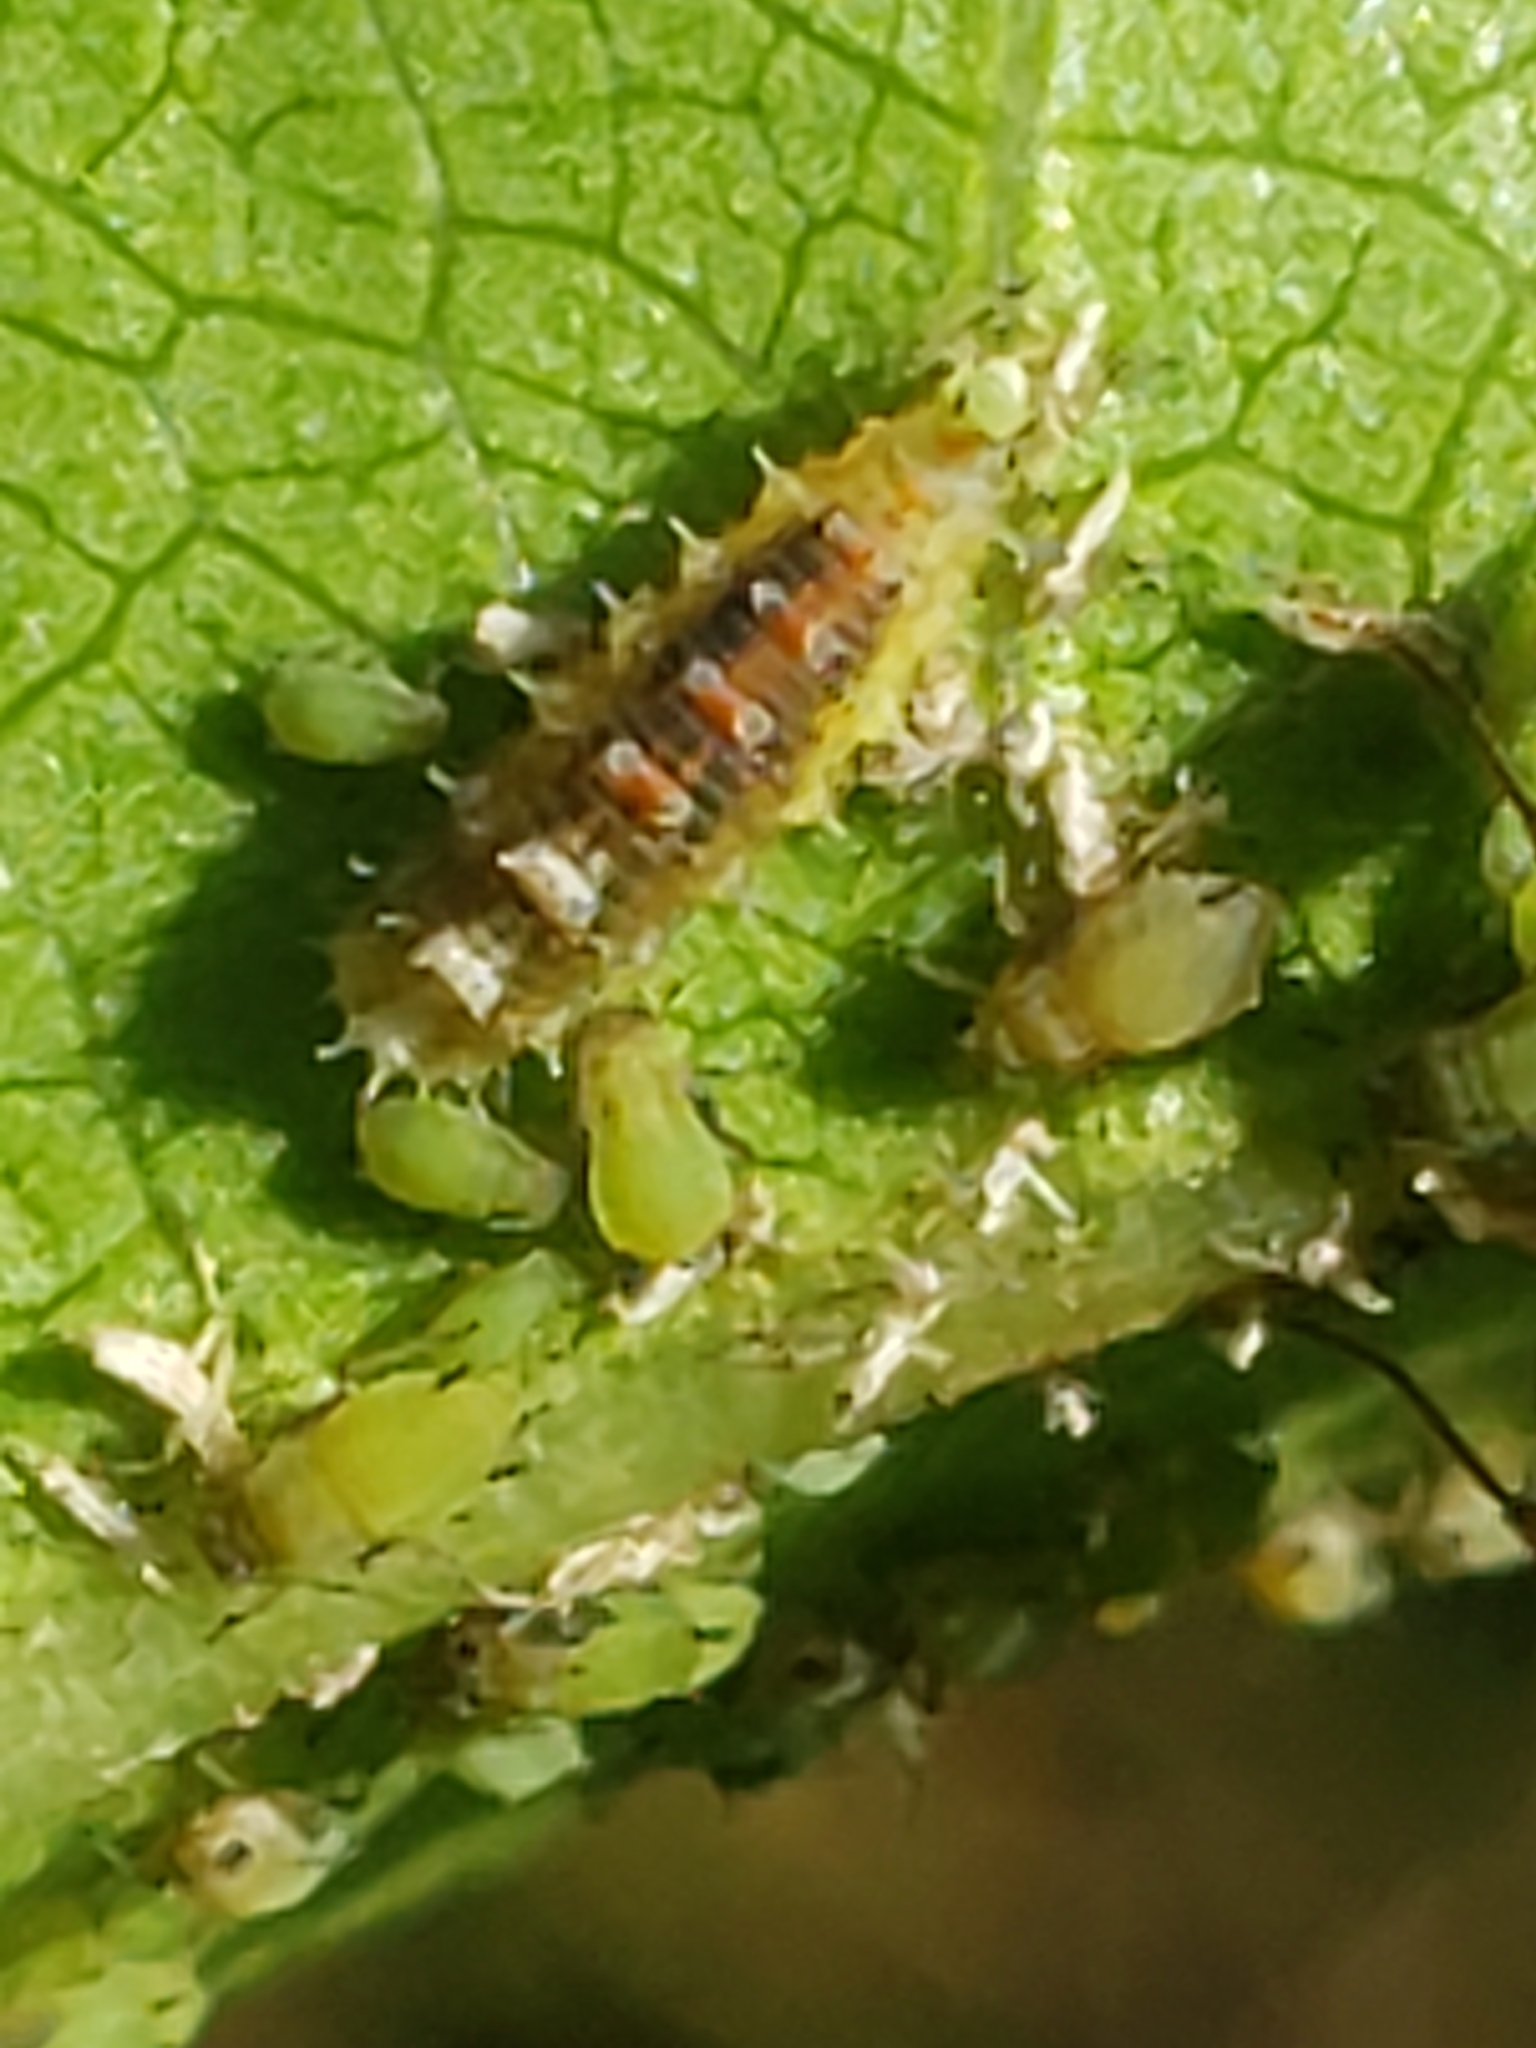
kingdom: Animalia
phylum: Arthropoda
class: Insecta
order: Diptera
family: Syrphidae
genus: Dioprosopa
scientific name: Dioprosopa clavatus
